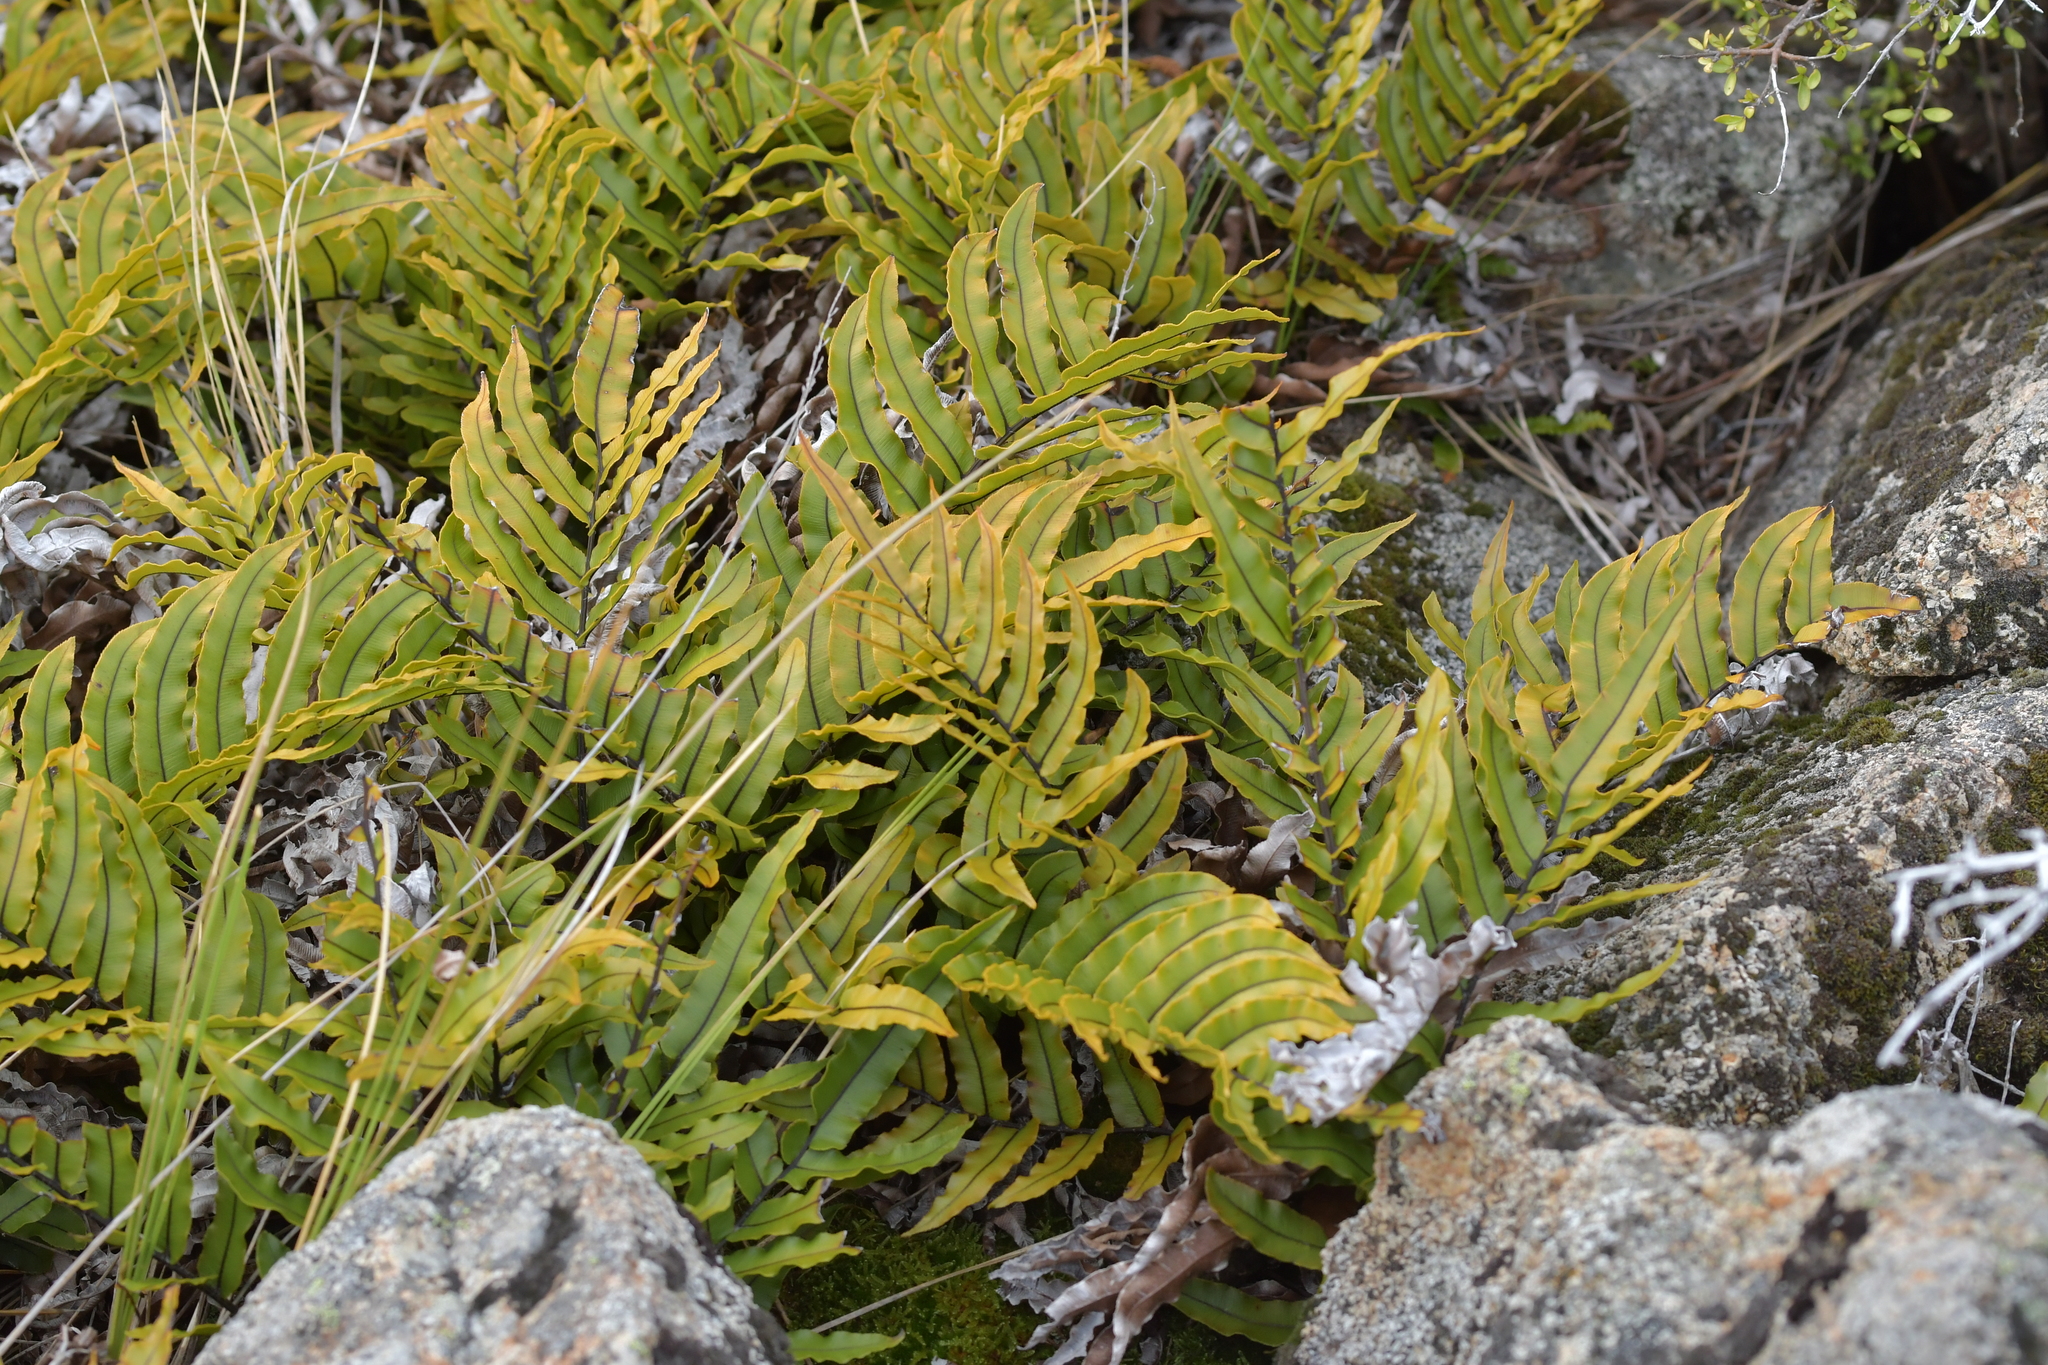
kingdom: Plantae
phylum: Tracheophyta
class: Polypodiopsida
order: Polypodiales
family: Blechnaceae
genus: Parablechnum
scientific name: Parablechnum montanum
